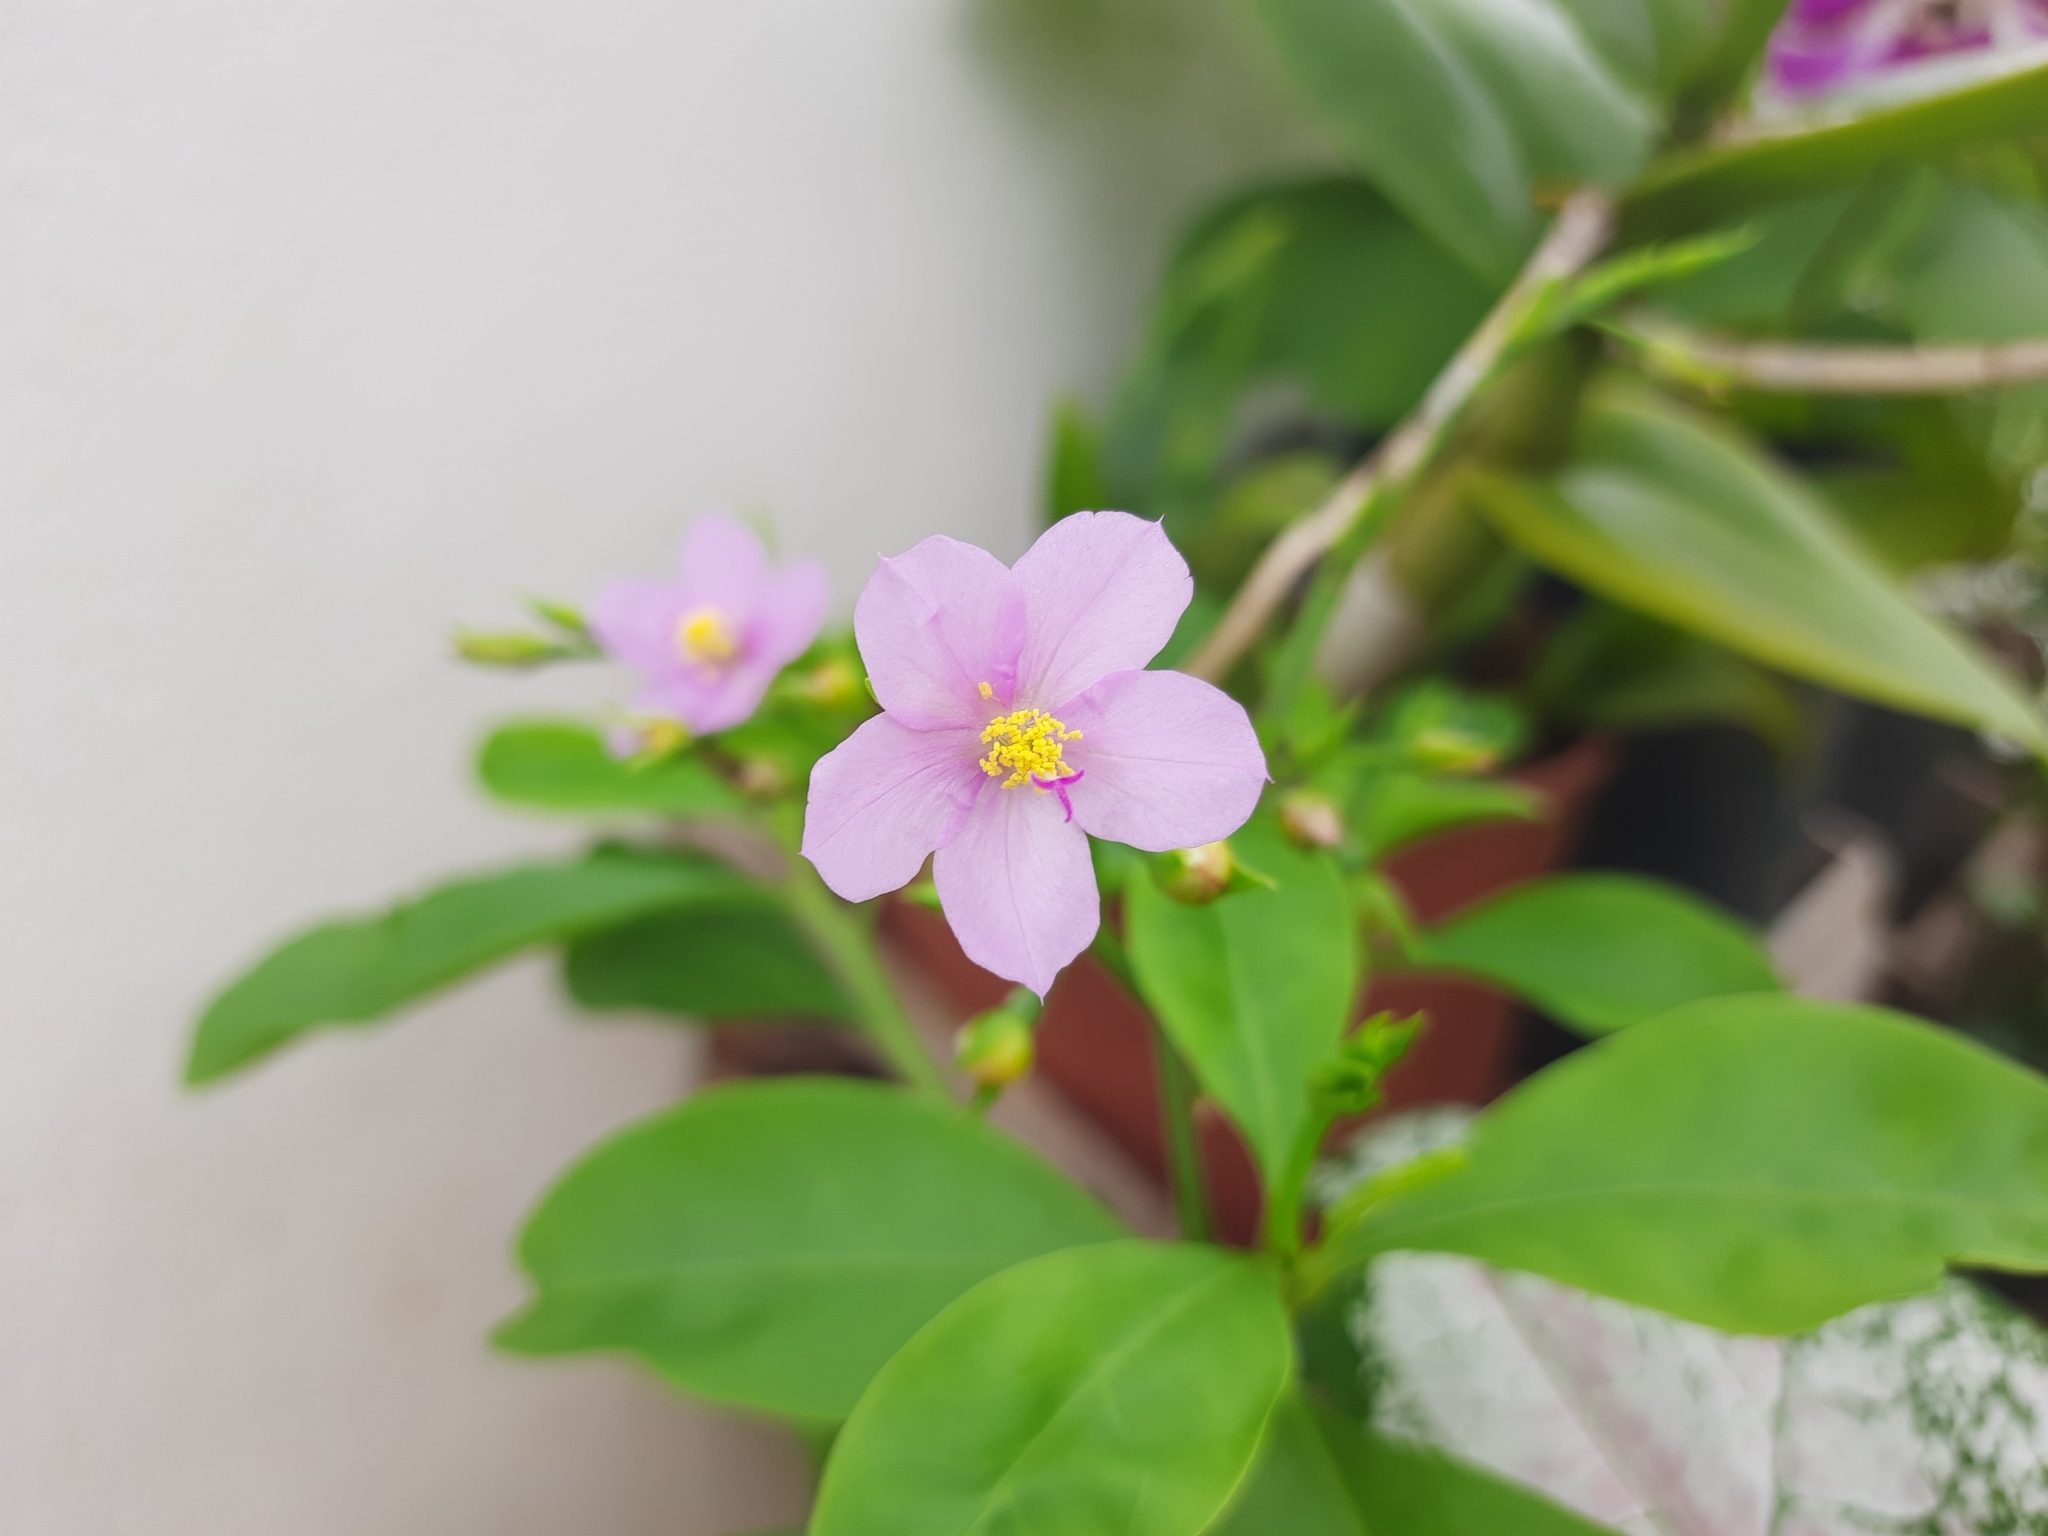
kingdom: Plantae
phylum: Tracheophyta
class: Magnoliopsida
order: Caryophyllales
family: Talinaceae
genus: Talinum
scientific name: Talinum fruticosum
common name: Verdolaga-francesa
